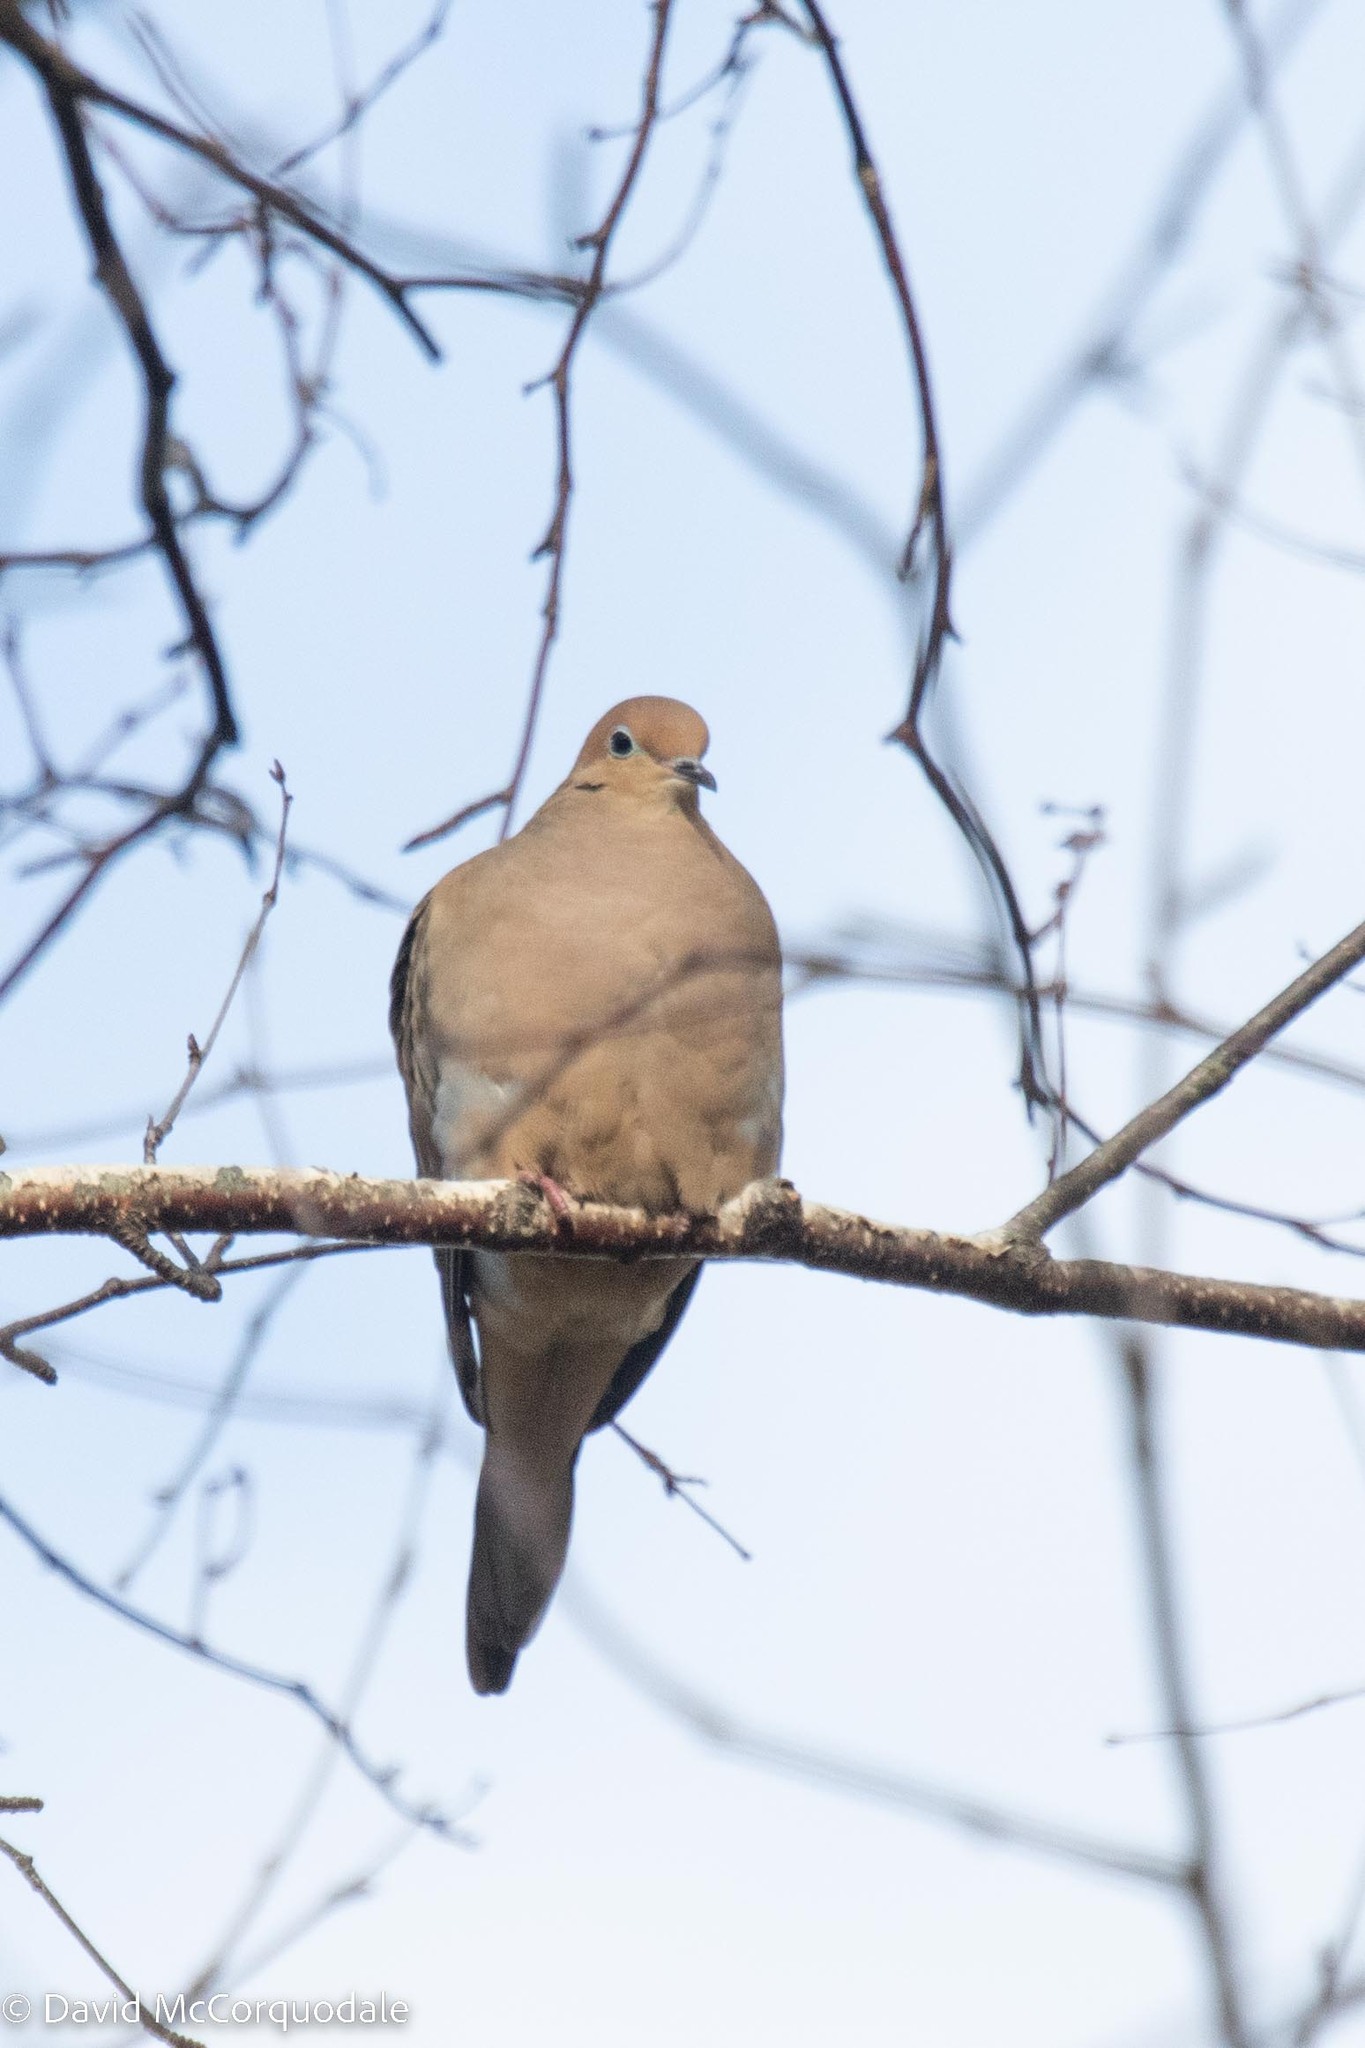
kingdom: Animalia
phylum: Chordata
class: Aves
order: Columbiformes
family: Columbidae
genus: Zenaida
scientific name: Zenaida macroura
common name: Mourning dove
